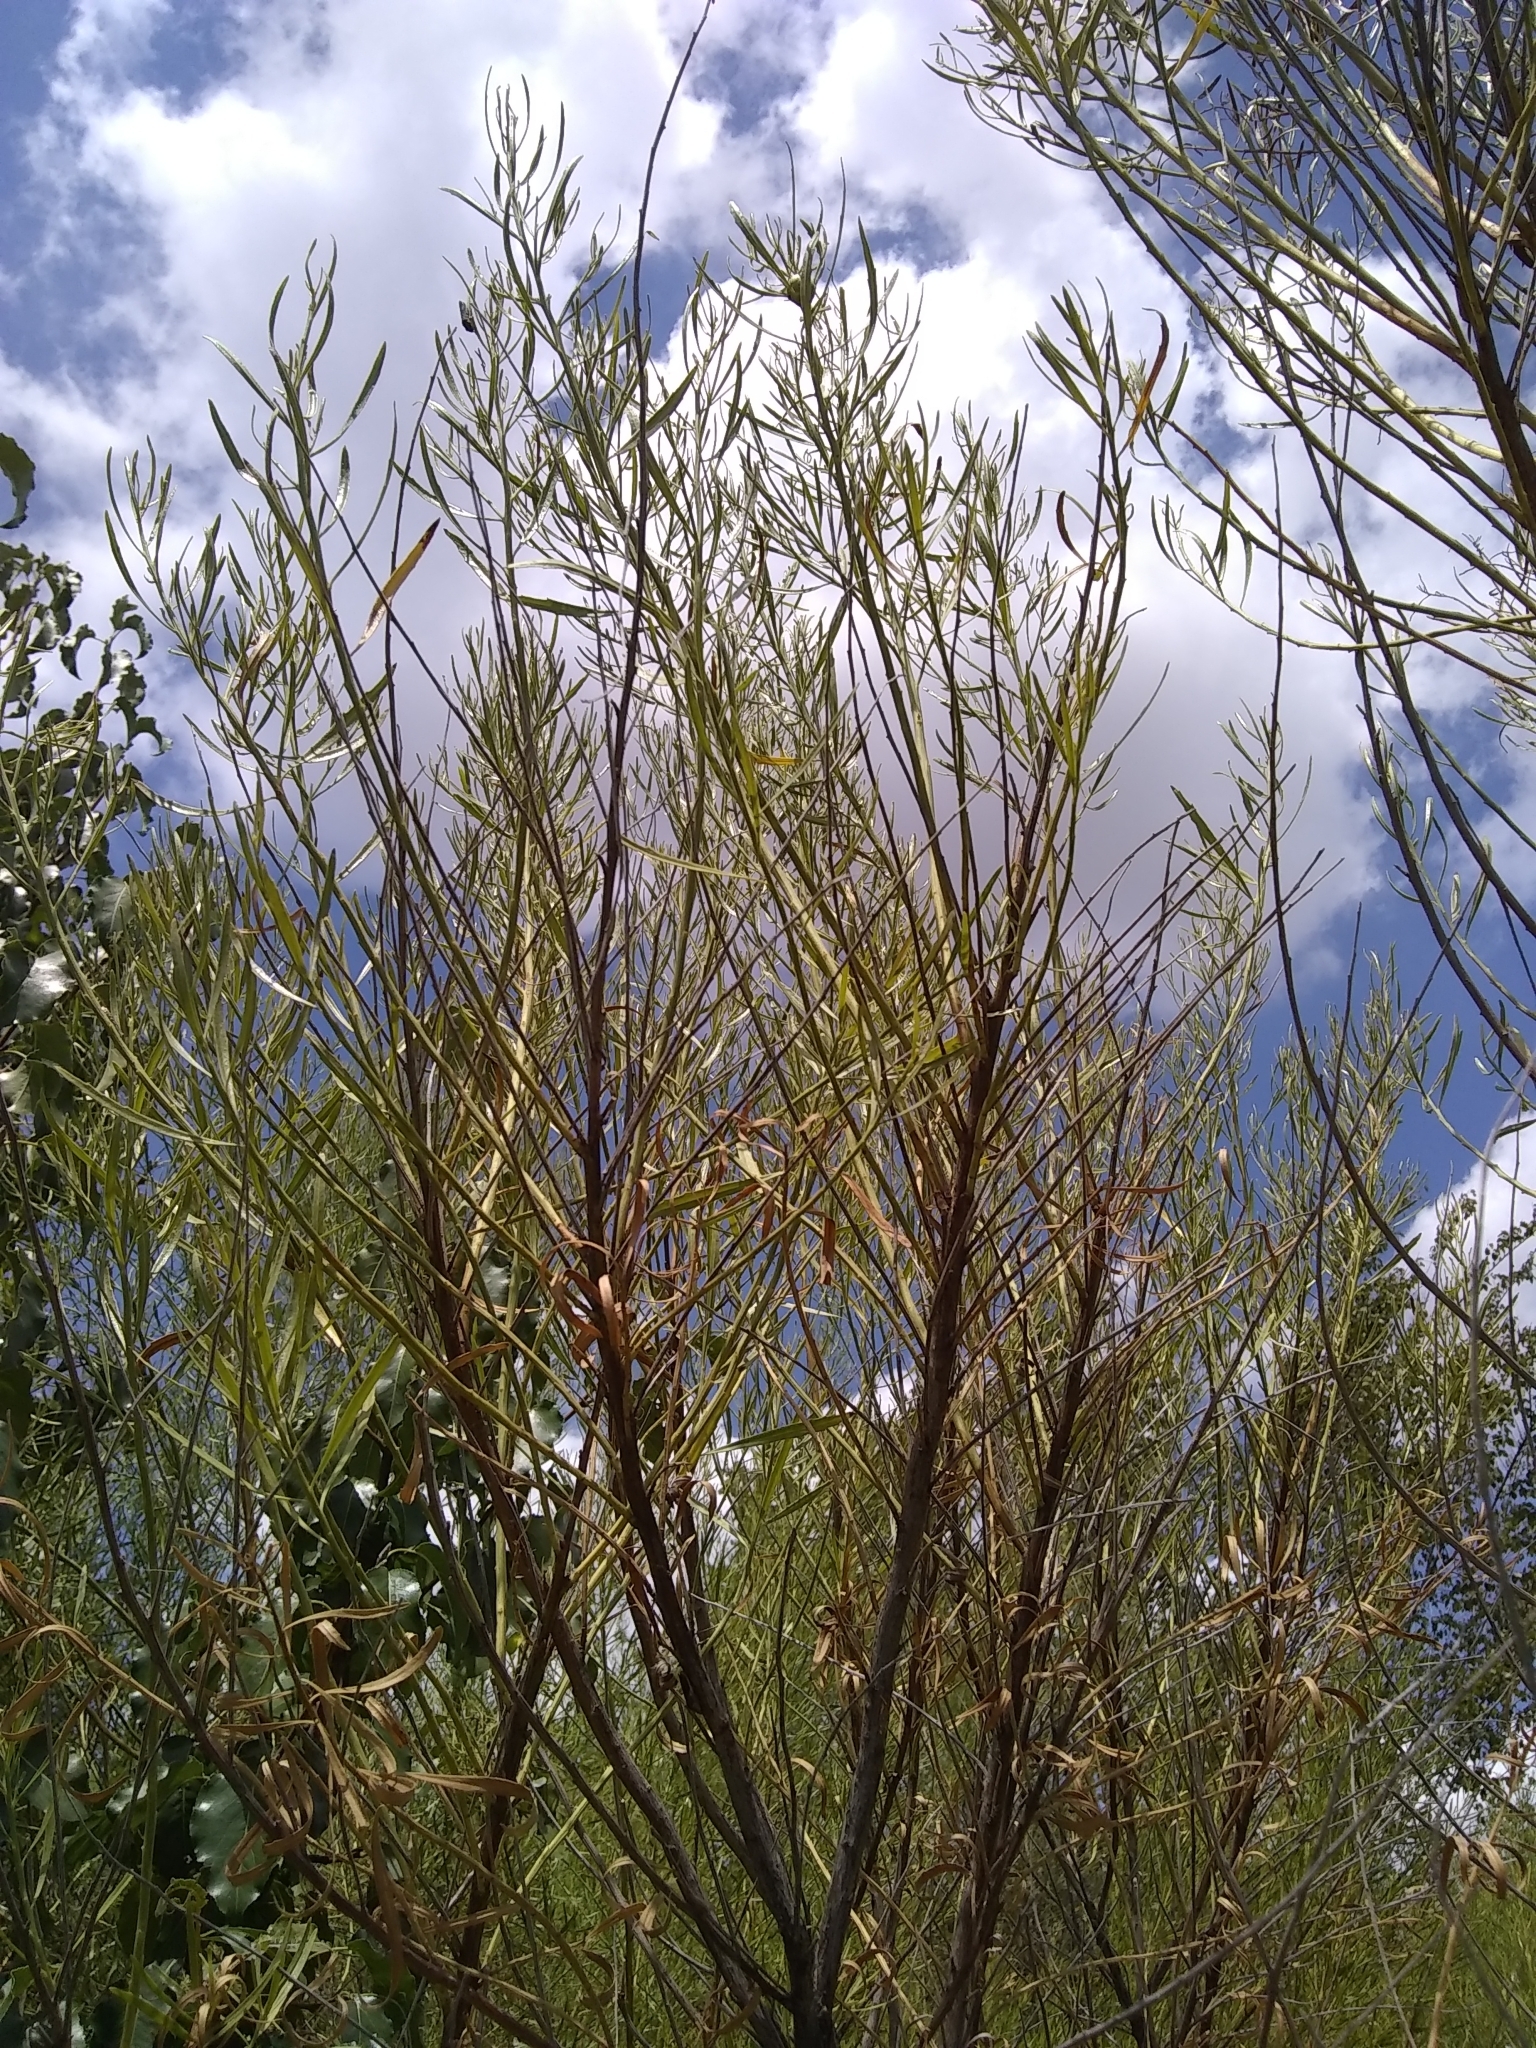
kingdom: Plantae
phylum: Tracheophyta
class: Magnoliopsida
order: Asterales
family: Asteraceae
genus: Baccharis
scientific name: Baccharis neglecta
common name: Roosevelt-weed
